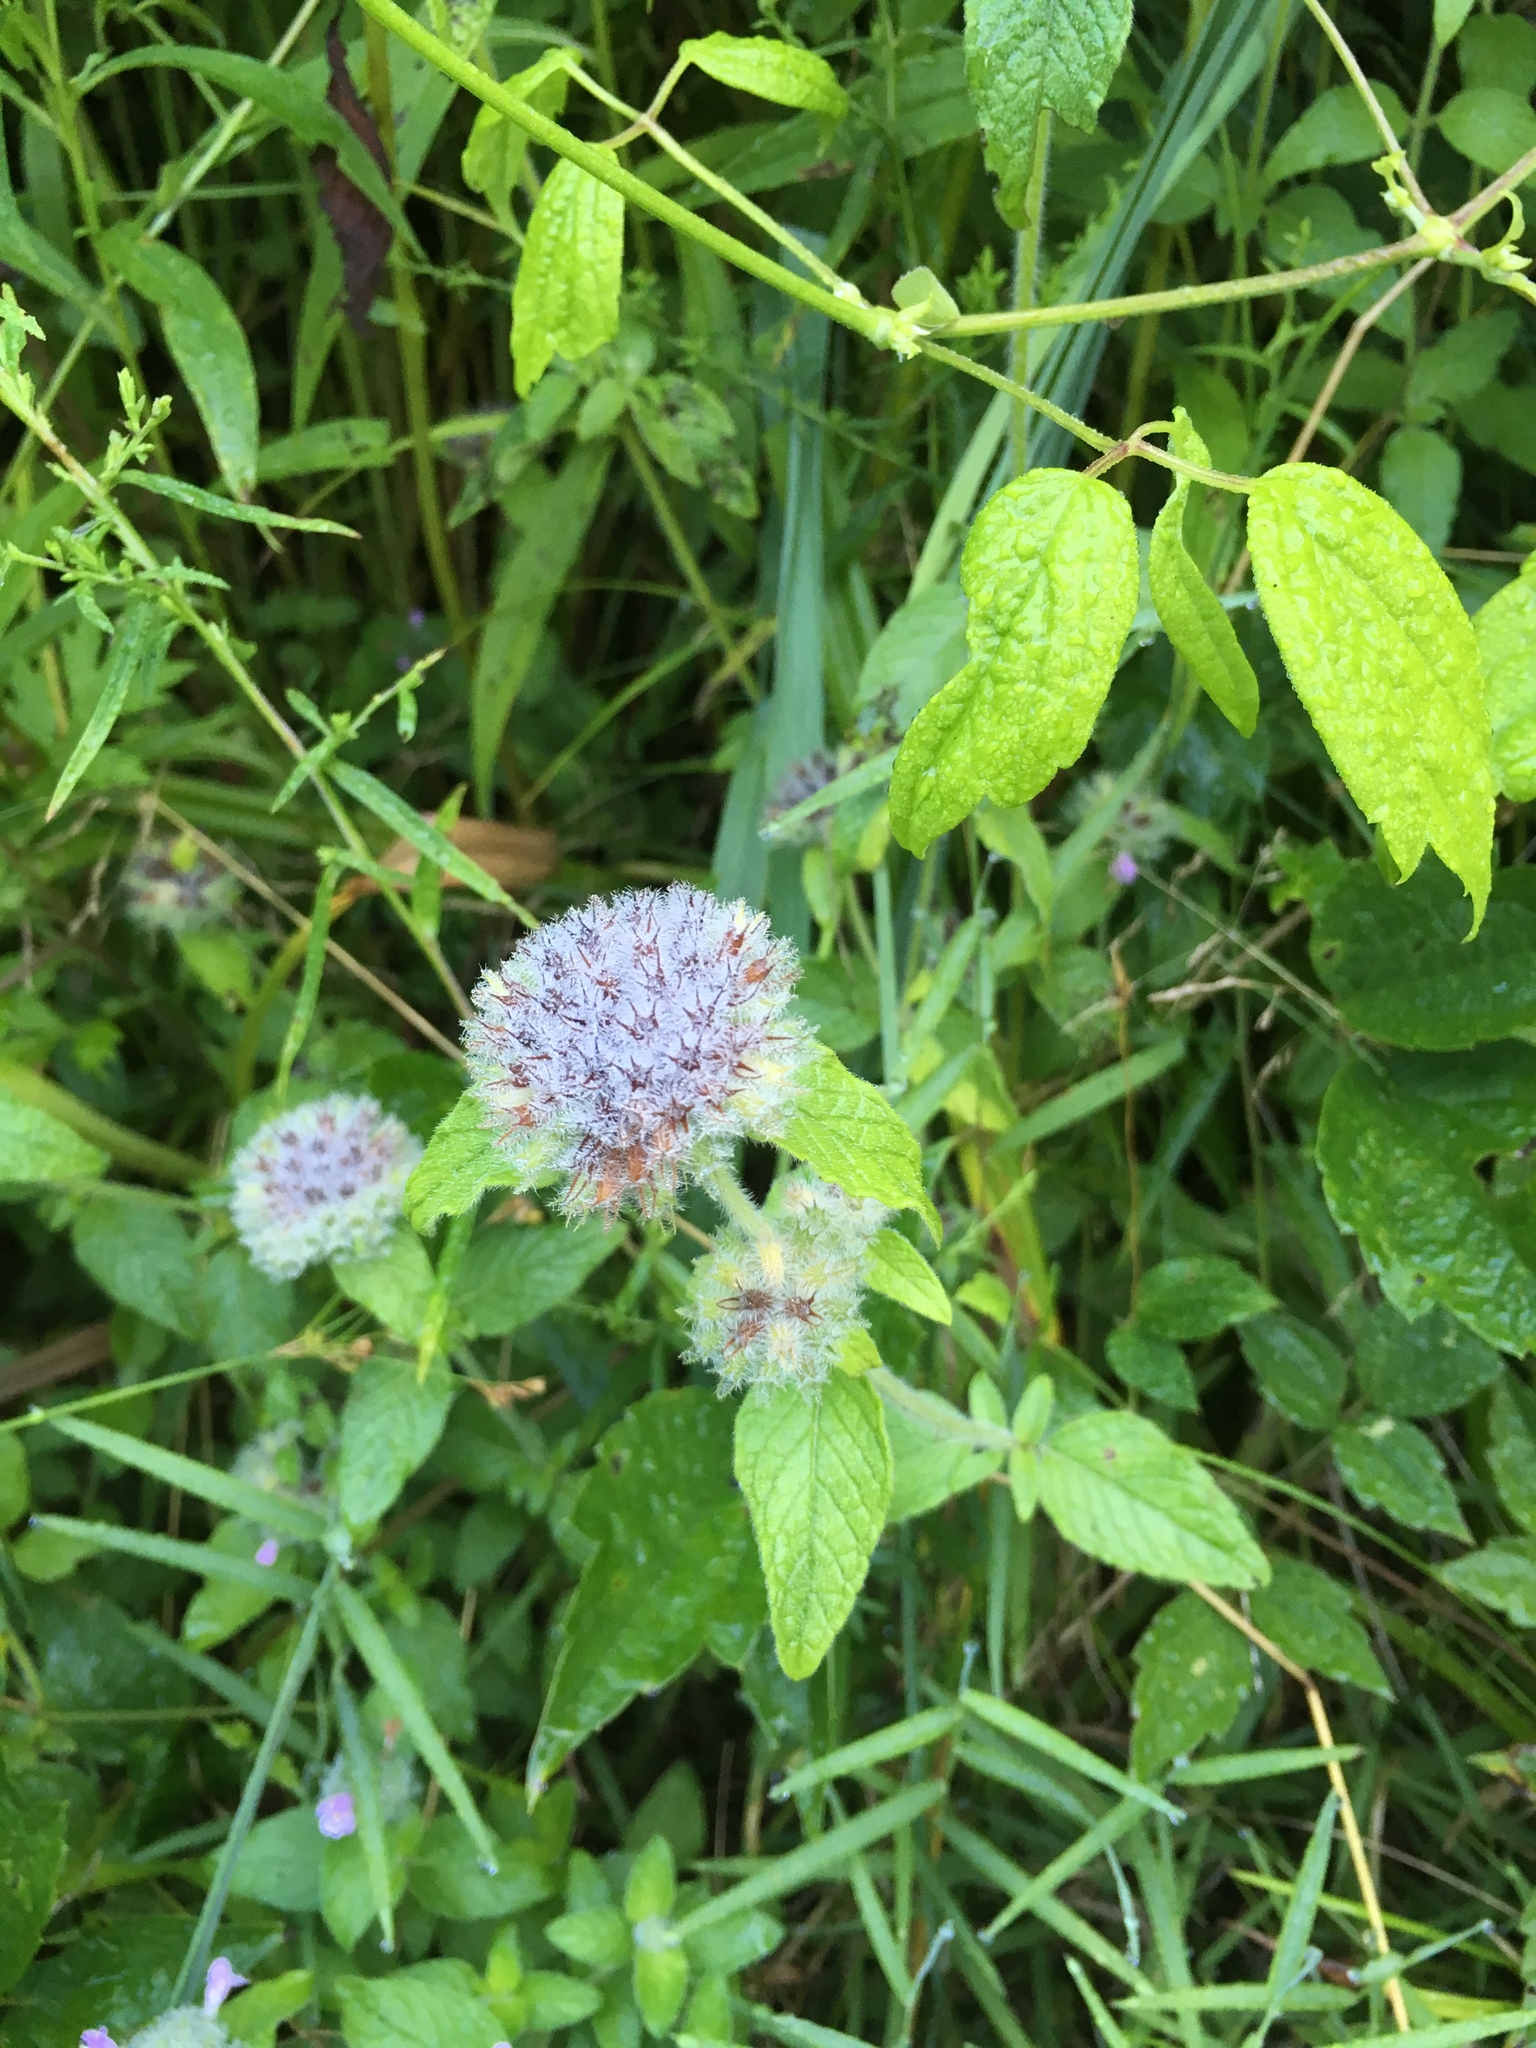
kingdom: Plantae
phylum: Tracheophyta
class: Magnoliopsida
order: Lamiales
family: Lamiaceae
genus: Clinopodium
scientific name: Clinopodium vulgare
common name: Wild basil
